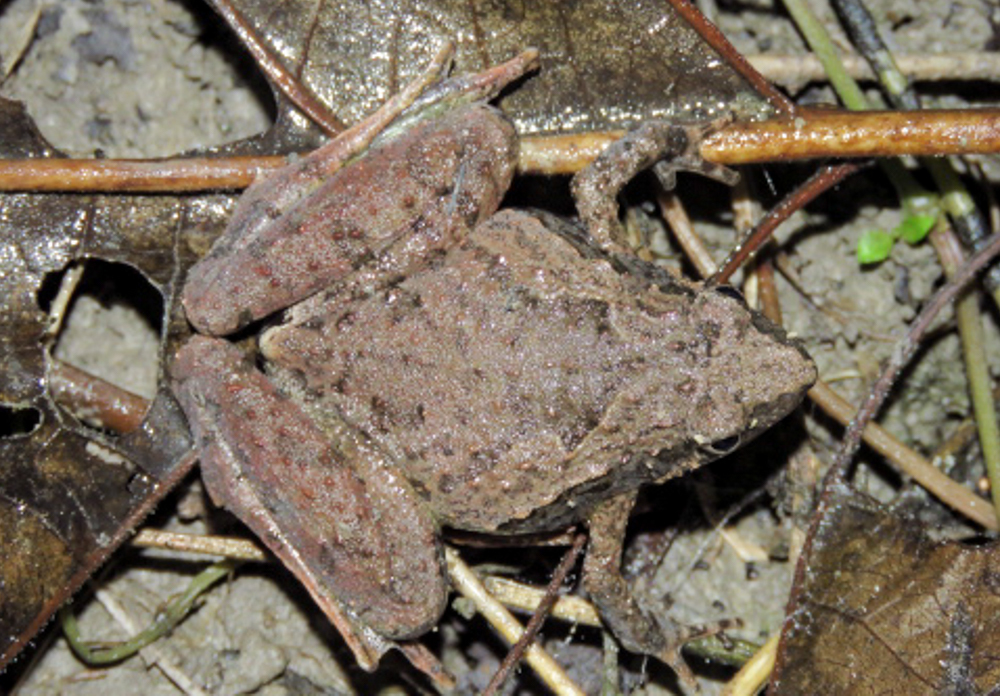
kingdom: Animalia
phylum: Chordata
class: Amphibia
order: Anura
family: Microhylidae
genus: Microhyla
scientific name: Microhyla berdmorei
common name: Berdmore’s narrow-mouthed frog,large pygmy frog
